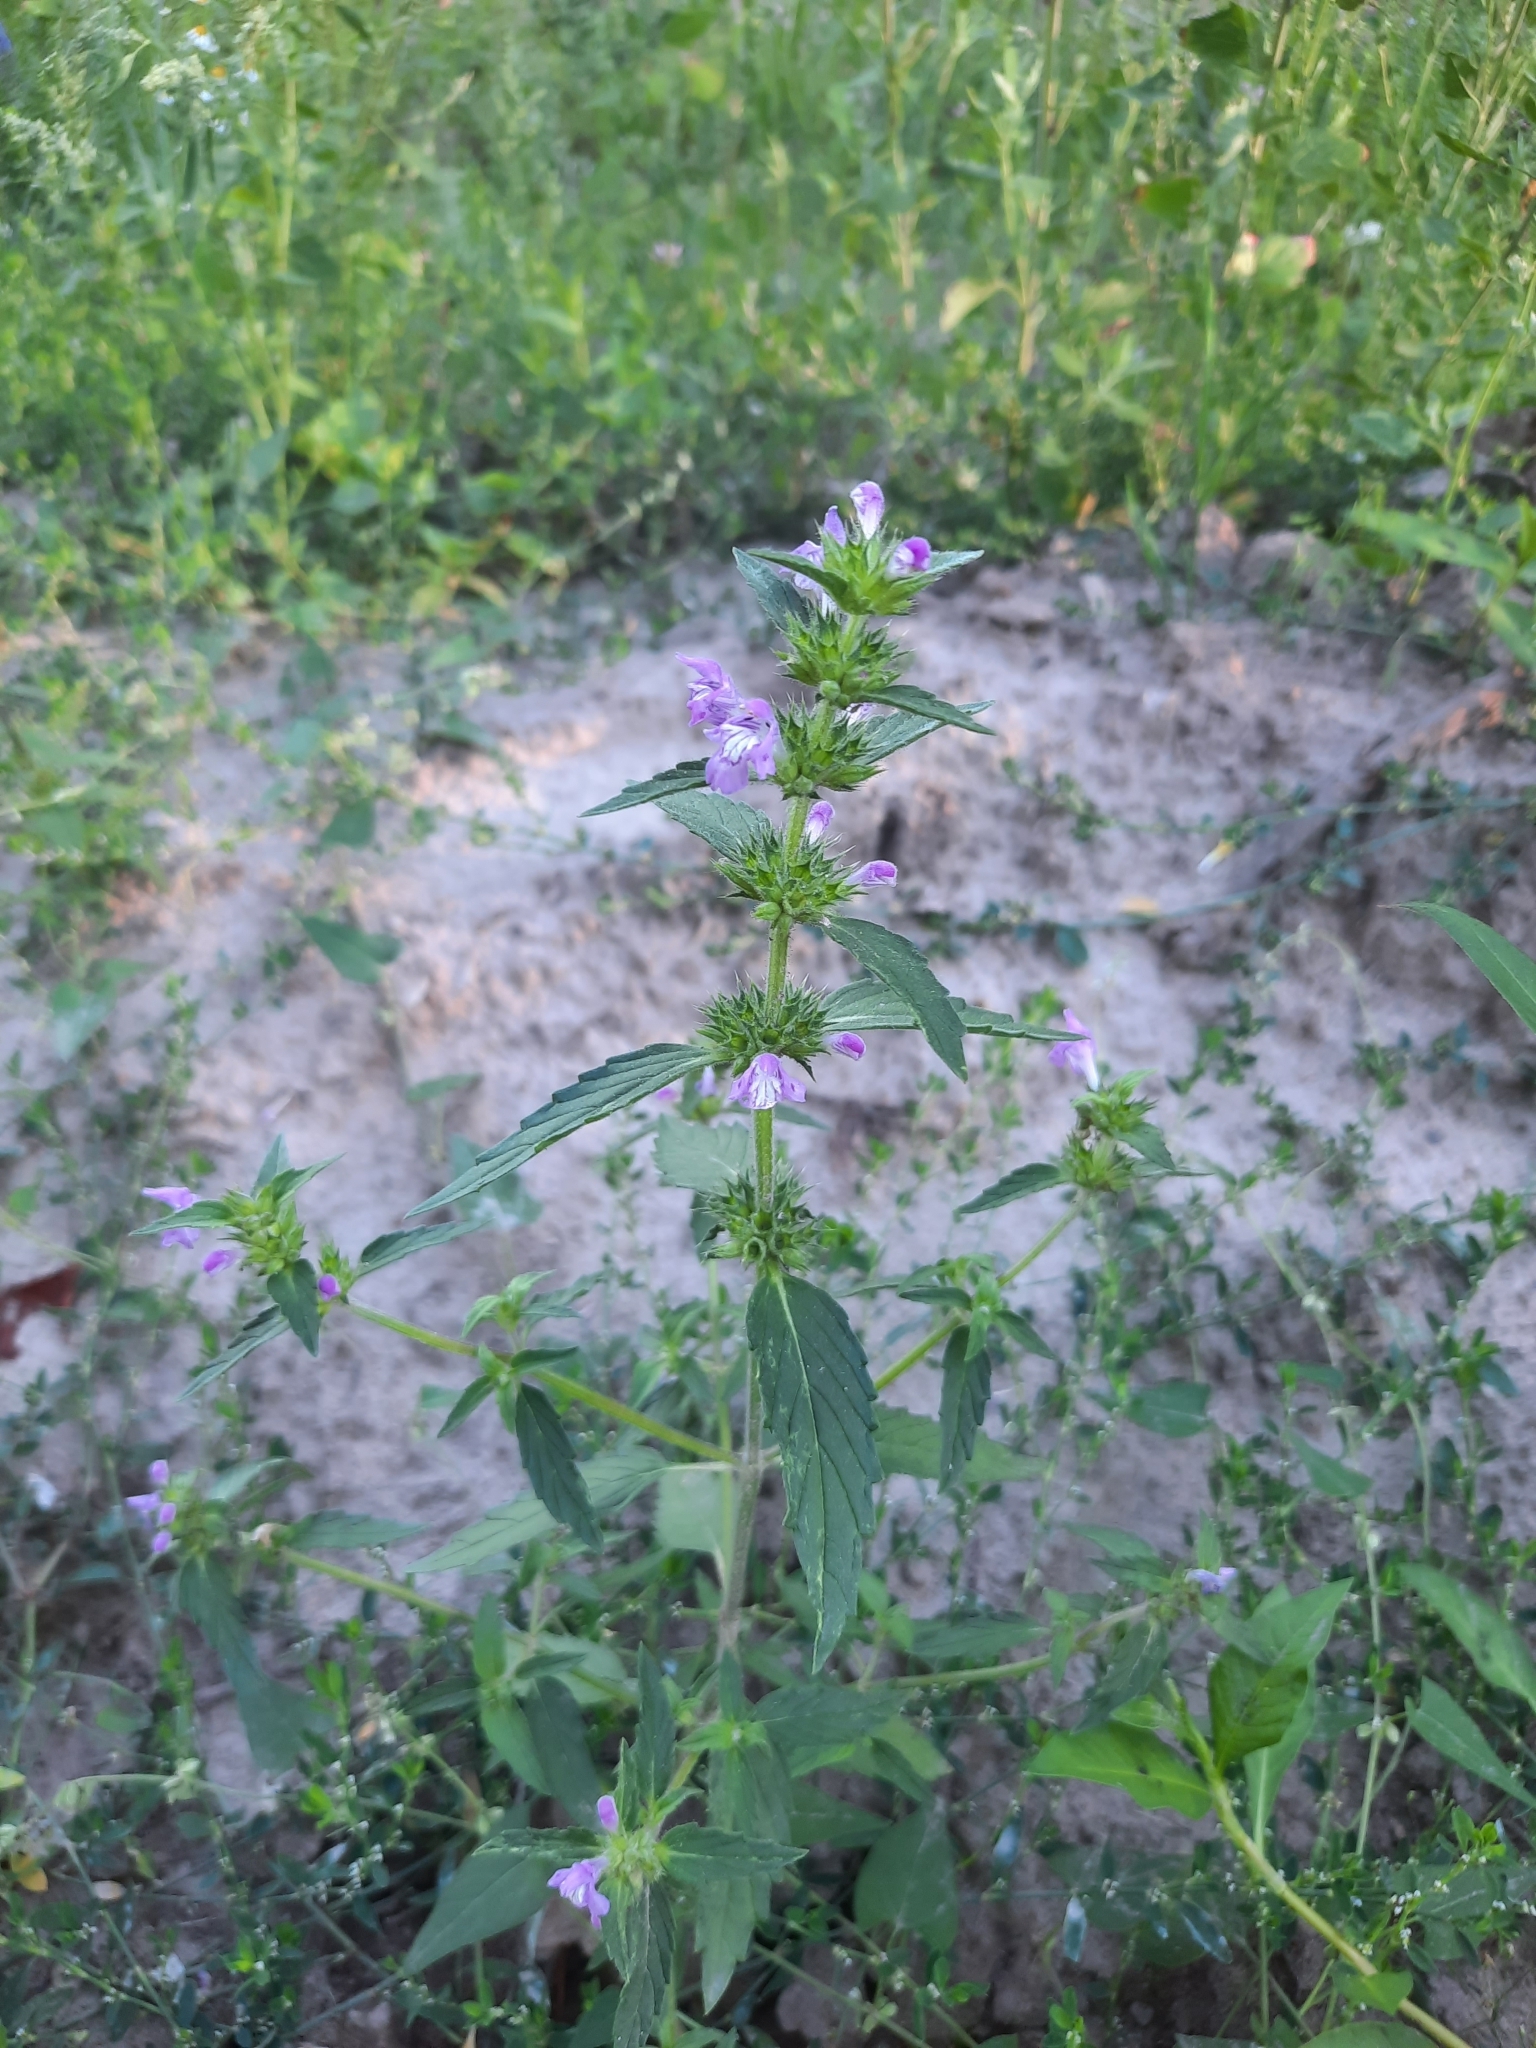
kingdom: Plantae
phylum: Tracheophyta
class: Magnoliopsida
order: Lamiales
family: Lamiaceae
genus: Galeopsis
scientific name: Galeopsis ladanum
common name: Broad-leaved hemp-nettle
